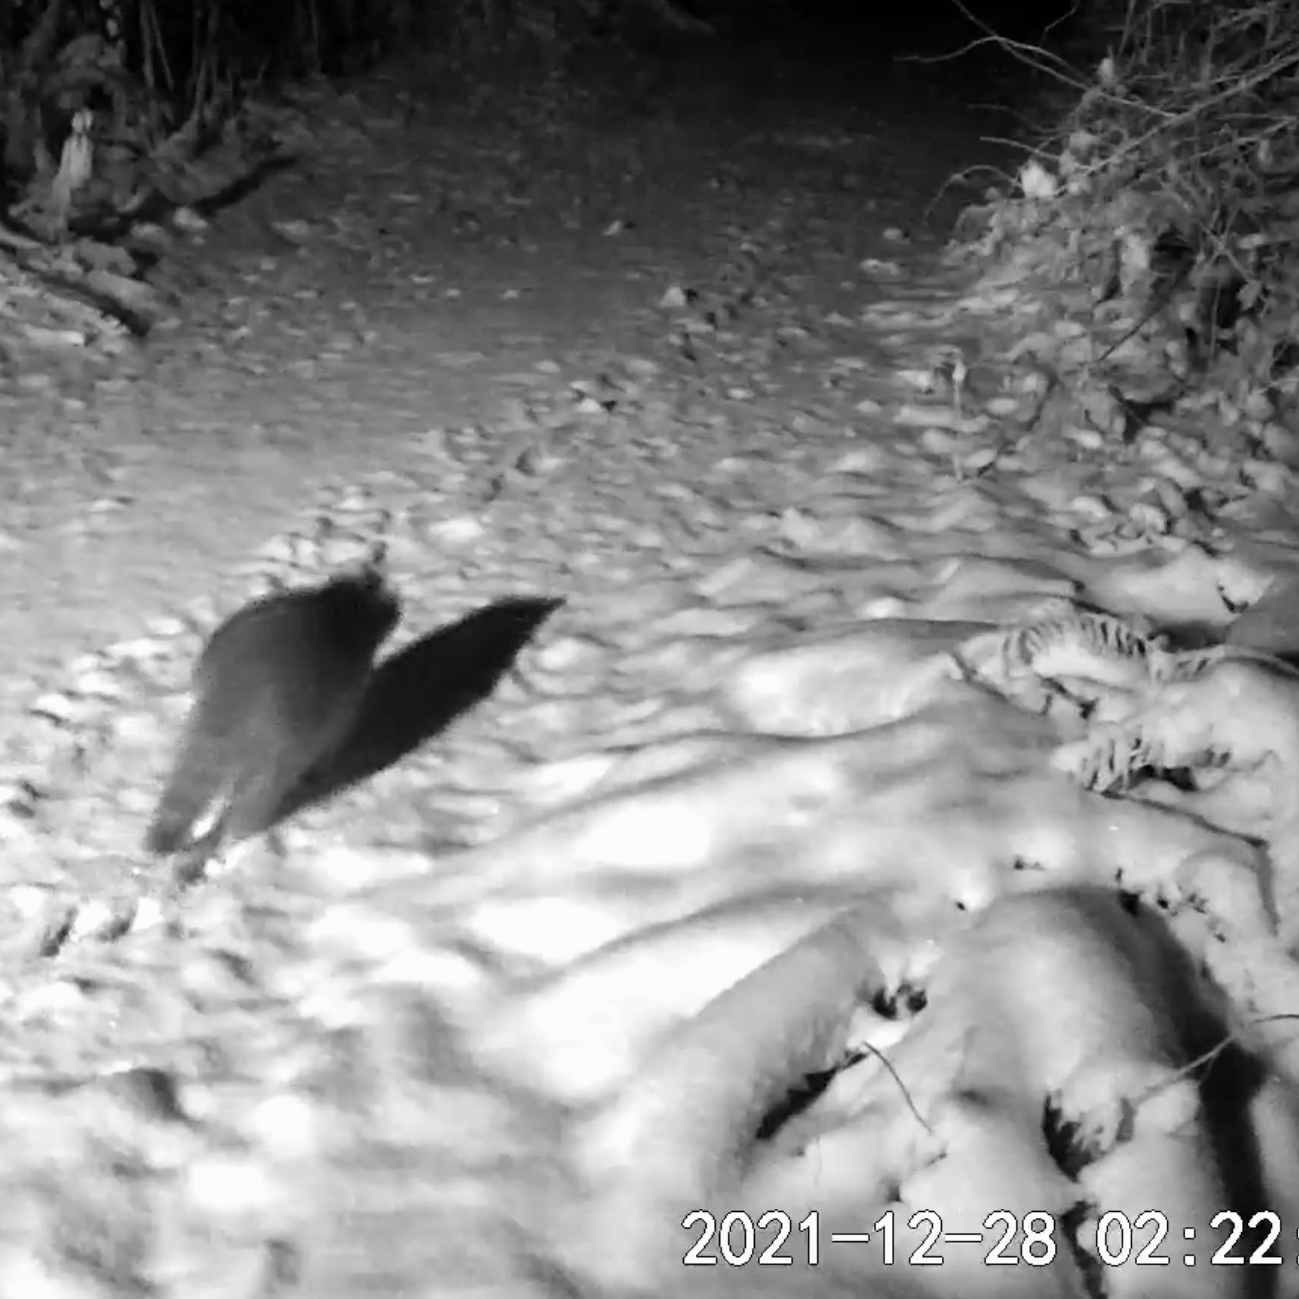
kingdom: Animalia
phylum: Chordata
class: Mammalia
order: Carnivora
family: Procyonidae
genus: Procyon
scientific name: Procyon lotor
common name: Raccoon
